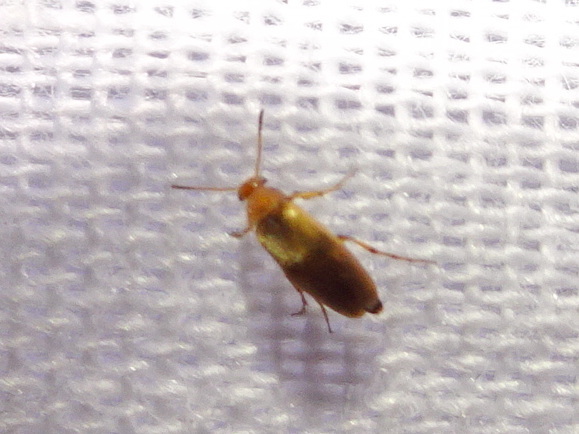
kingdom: Animalia
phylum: Arthropoda
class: Insecta
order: Coleoptera
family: Scraptiidae
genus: Anaspis
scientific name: Anaspis maculata
